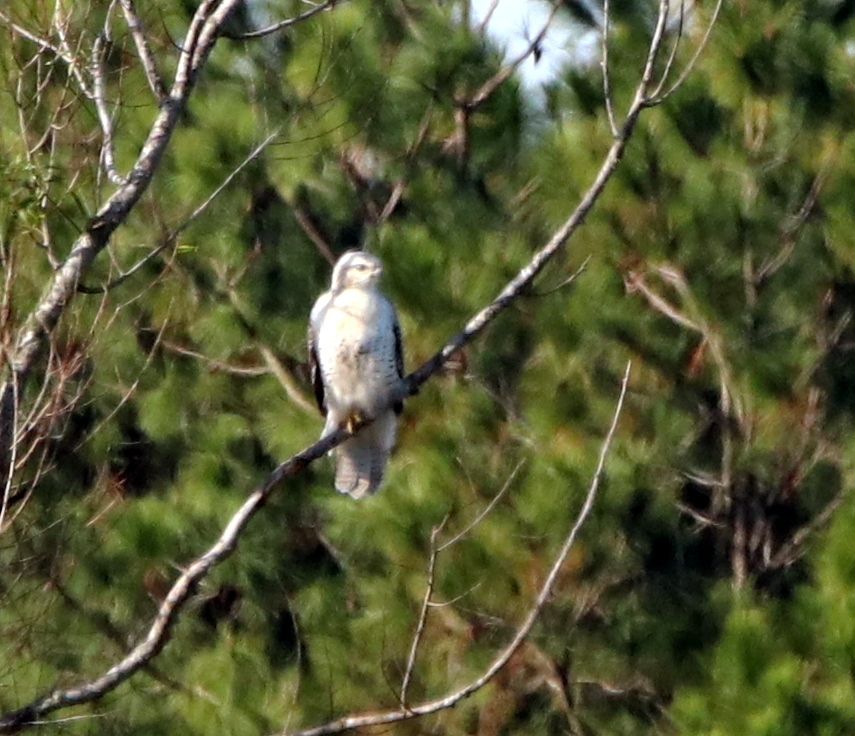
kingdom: Animalia
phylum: Chordata
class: Aves
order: Accipitriformes
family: Accipitridae
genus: Buteo
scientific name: Buteo jamaicensis
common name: Red-tailed hawk
